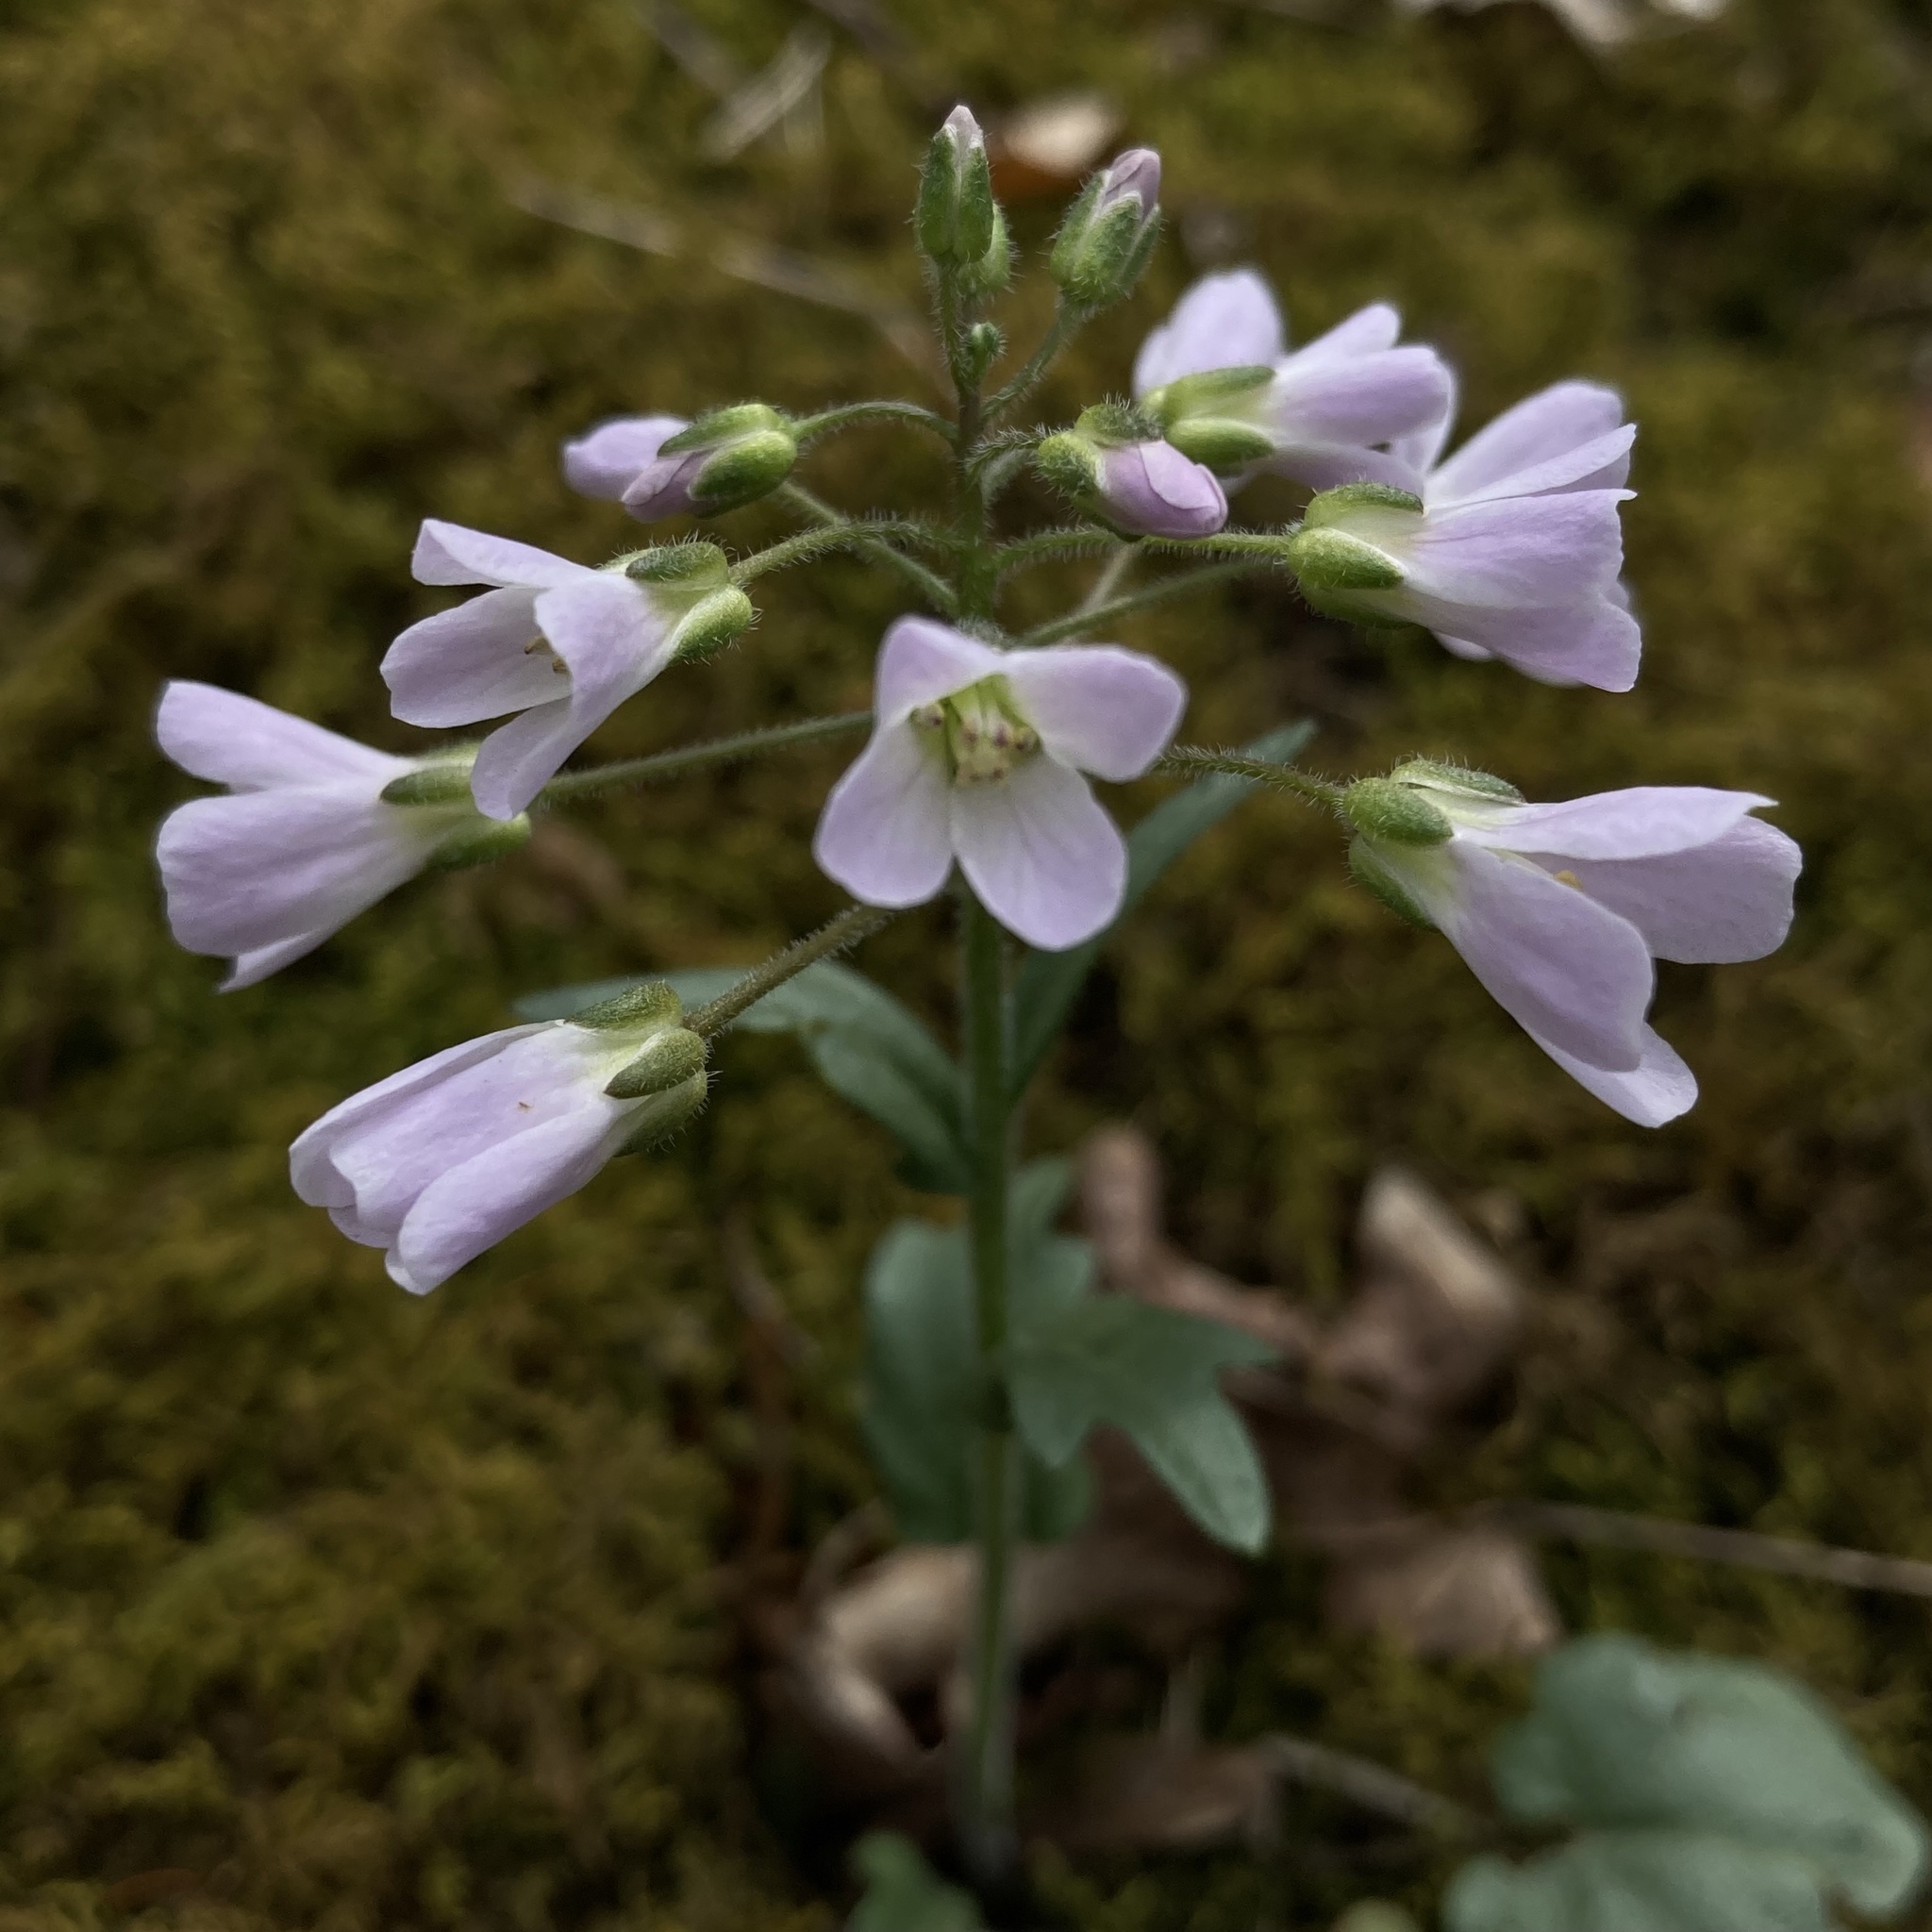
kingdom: Plantae
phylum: Tracheophyta
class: Magnoliopsida
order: Brassicales
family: Brassicaceae
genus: Cardamine
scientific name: Cardamine douglassii
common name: Purple cress
